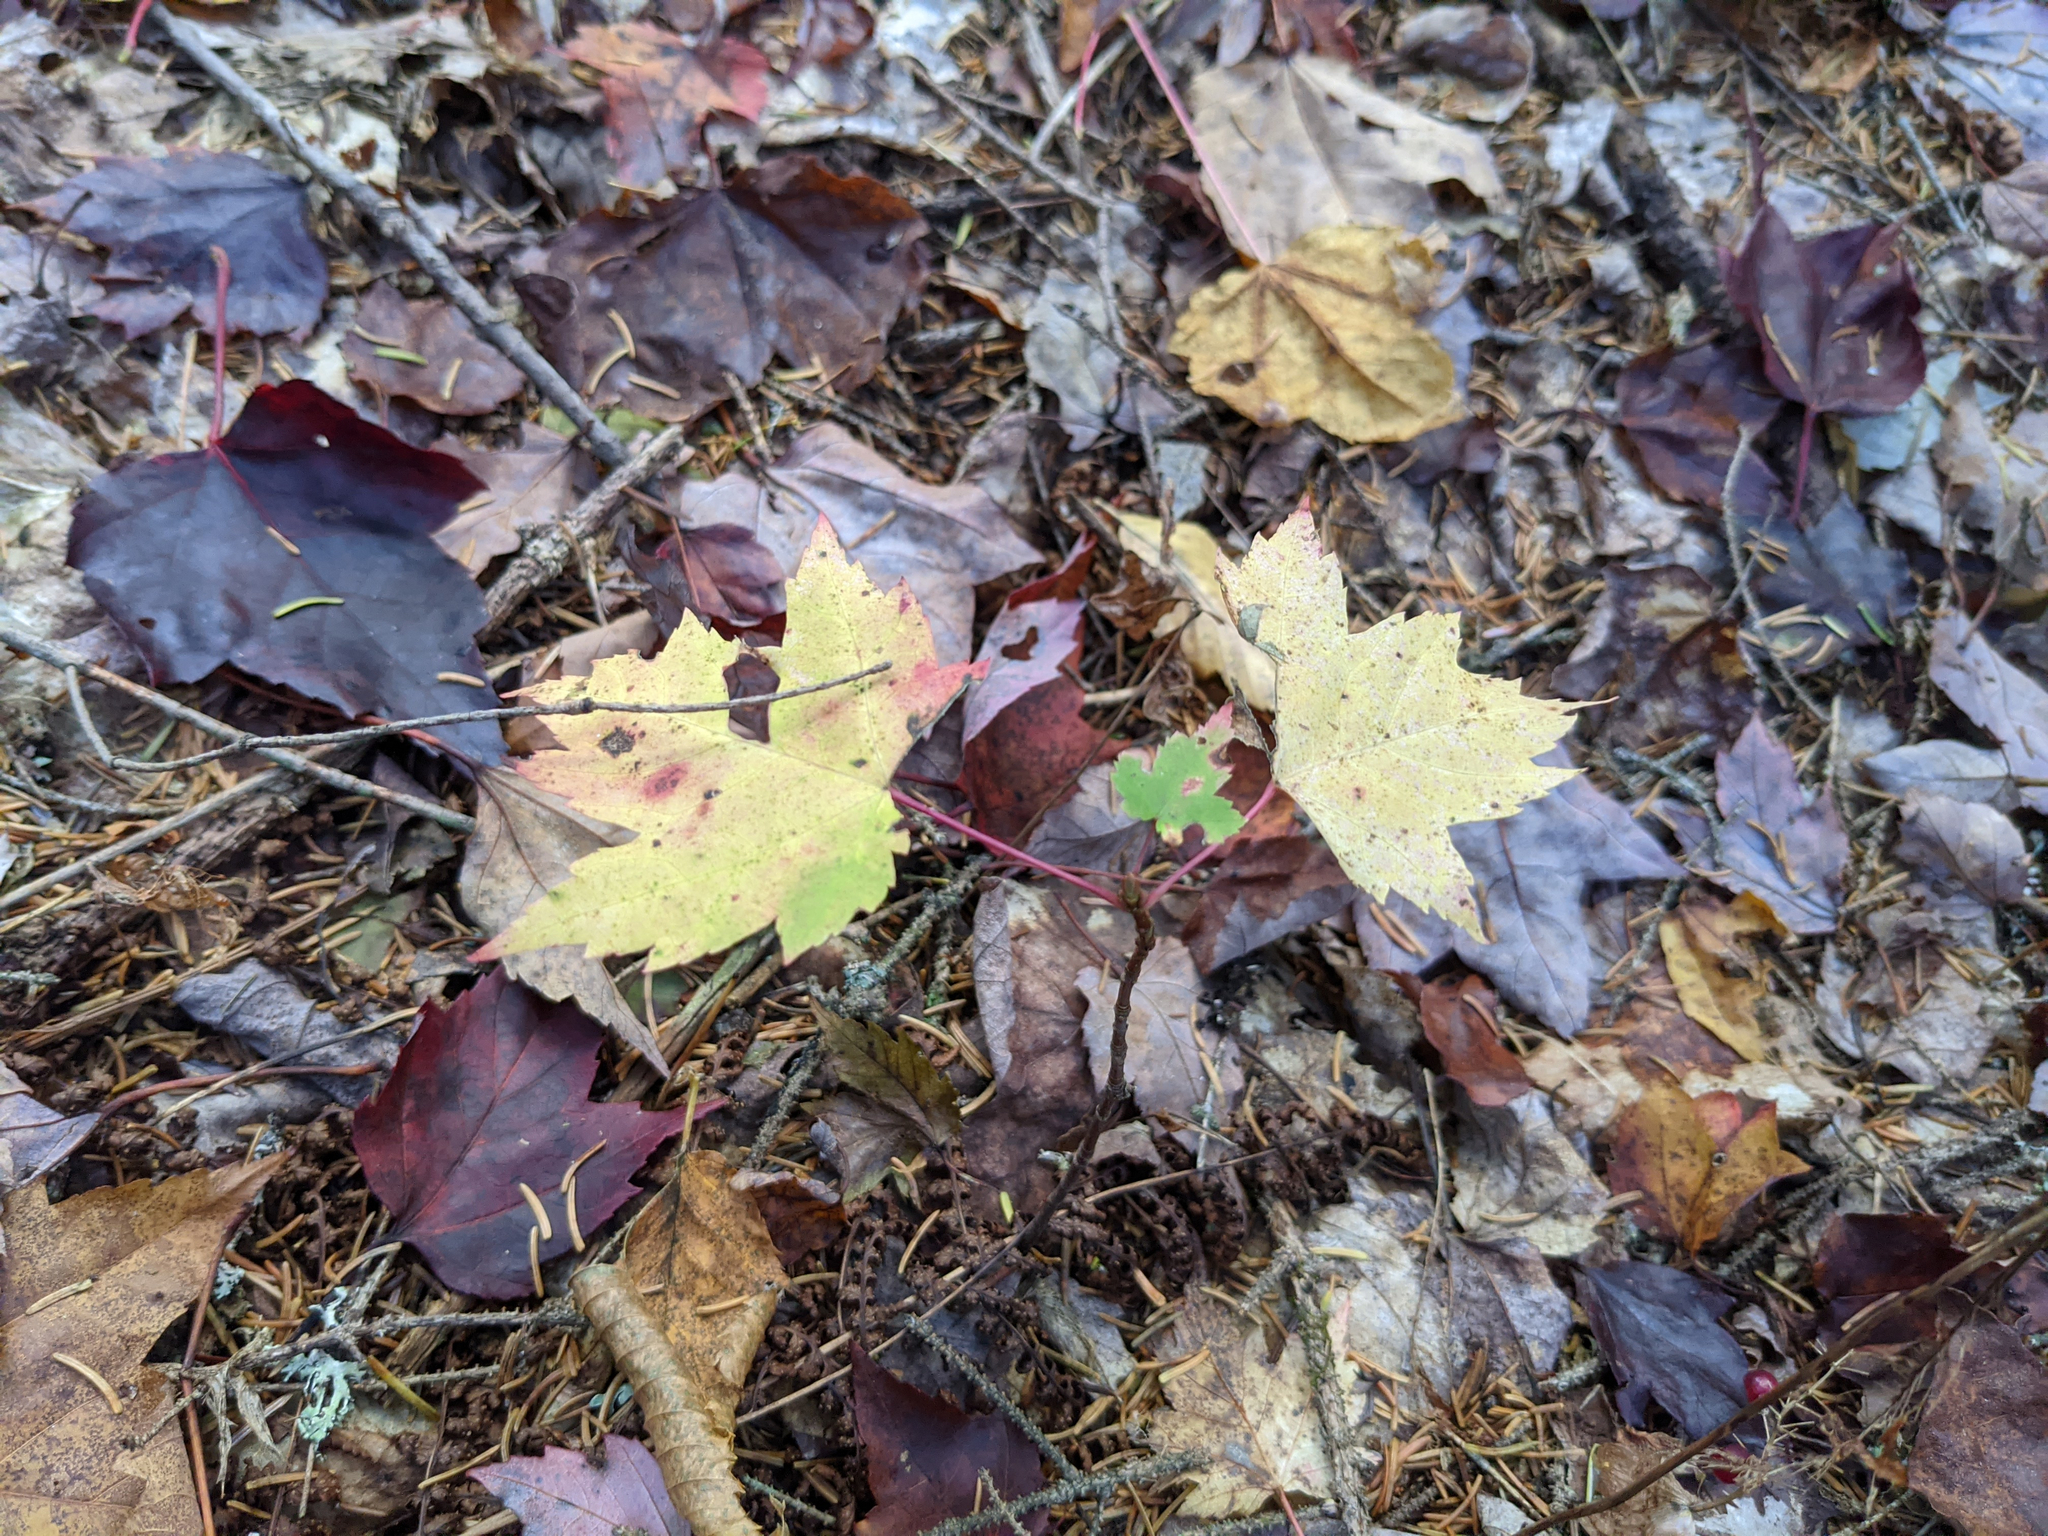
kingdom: Plantae
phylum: Tracheophyta
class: Magnoliopsida
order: Sapindales
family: Sapindaceae
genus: Acer
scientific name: Acer rubrum
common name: Red maple
